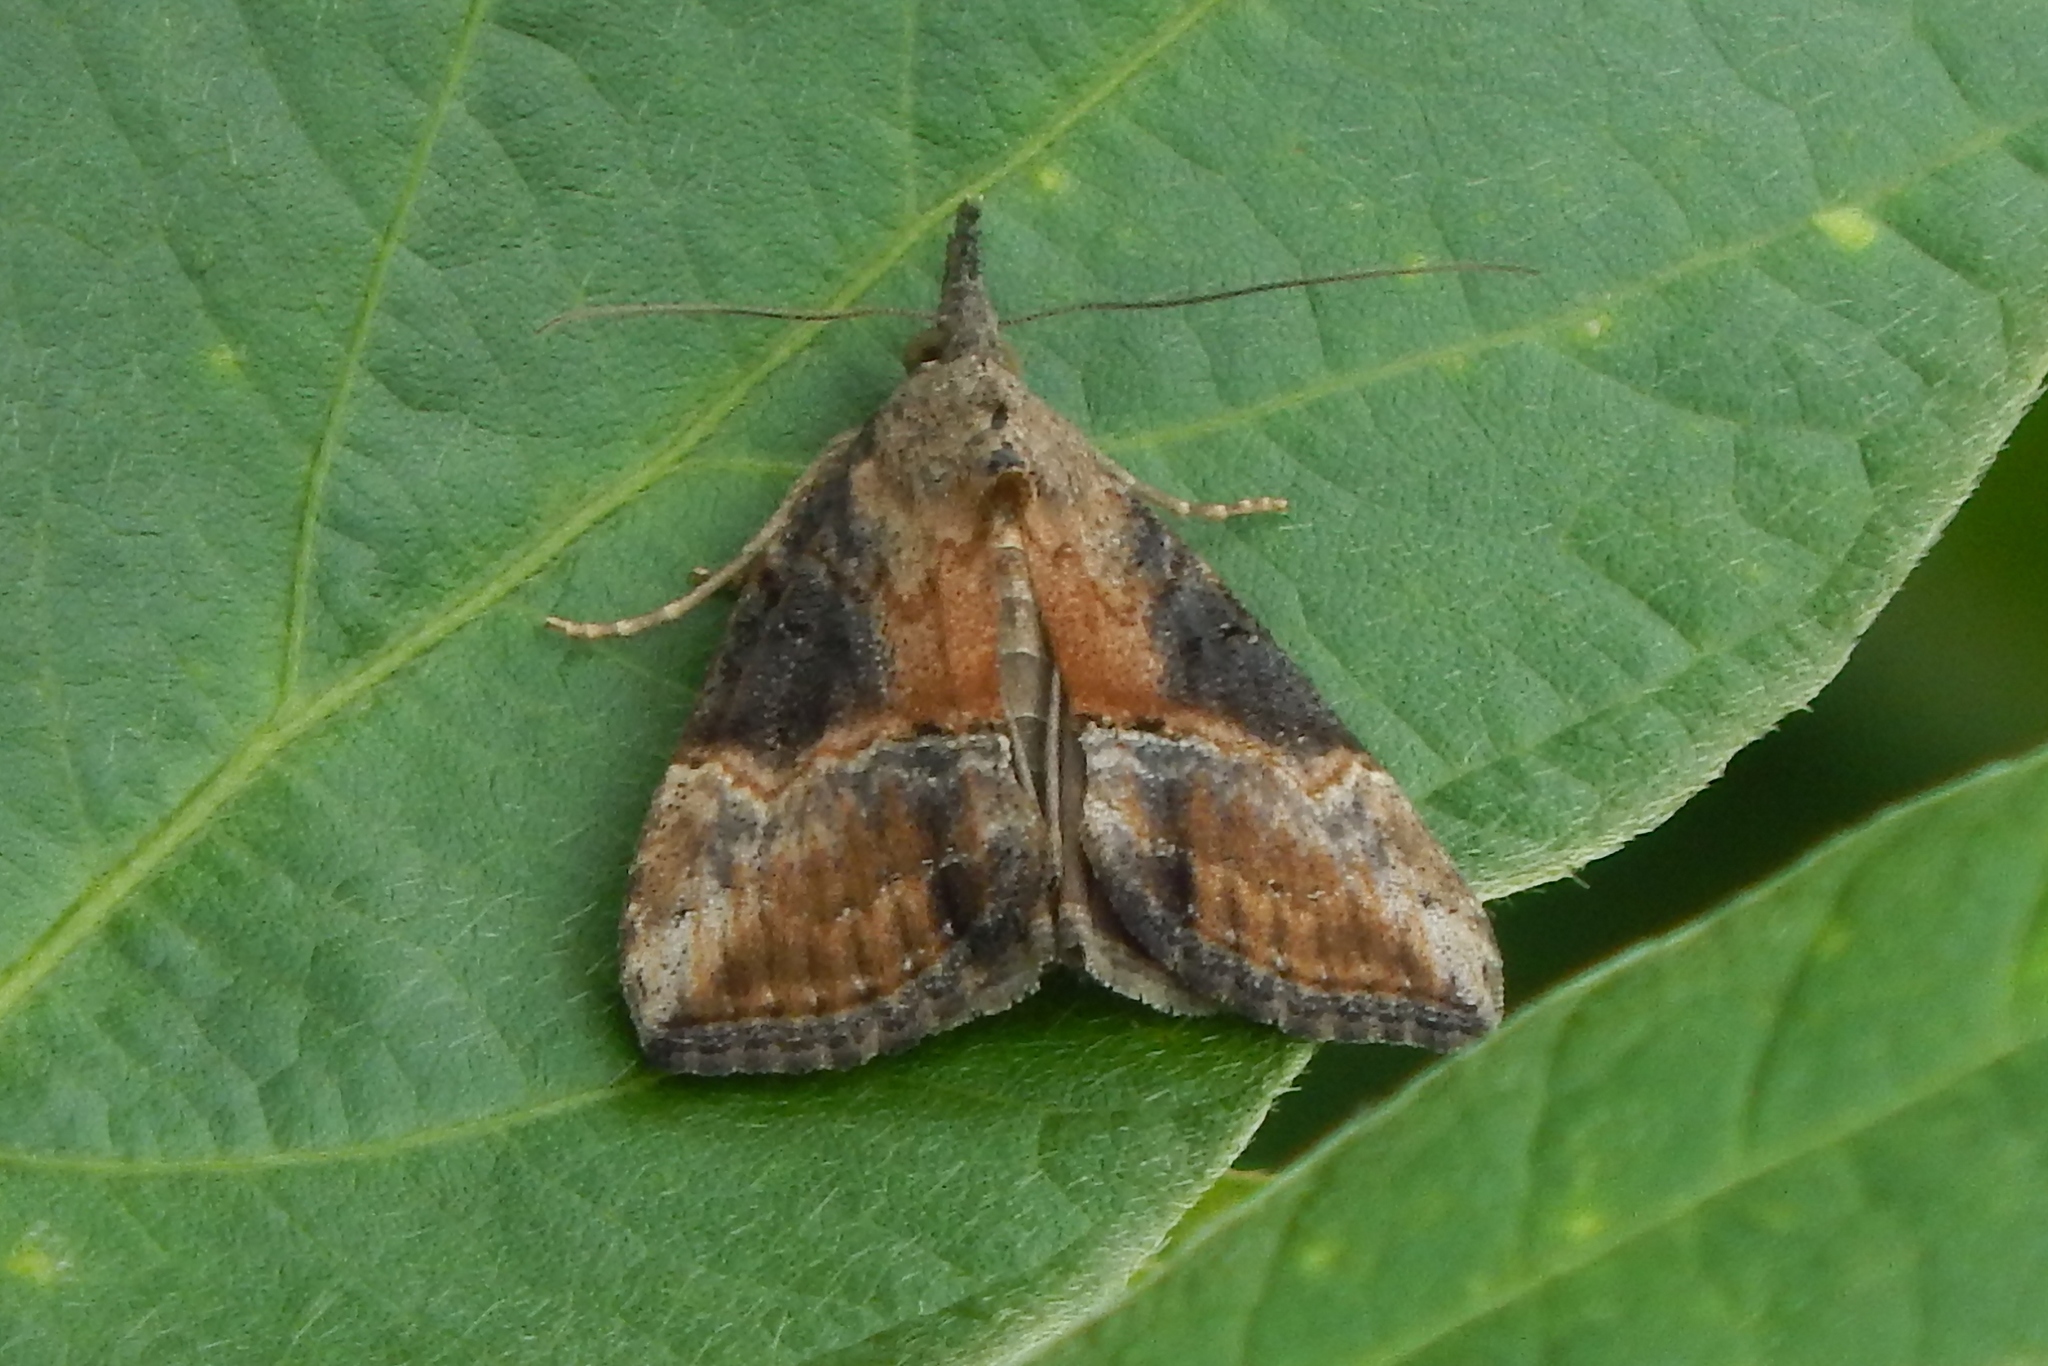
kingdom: Animalia
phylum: Arthropoda
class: Insecta
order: Lepidoptera
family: Erebidae
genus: Hypena
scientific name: Hypena scabra
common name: Green cloverworm
